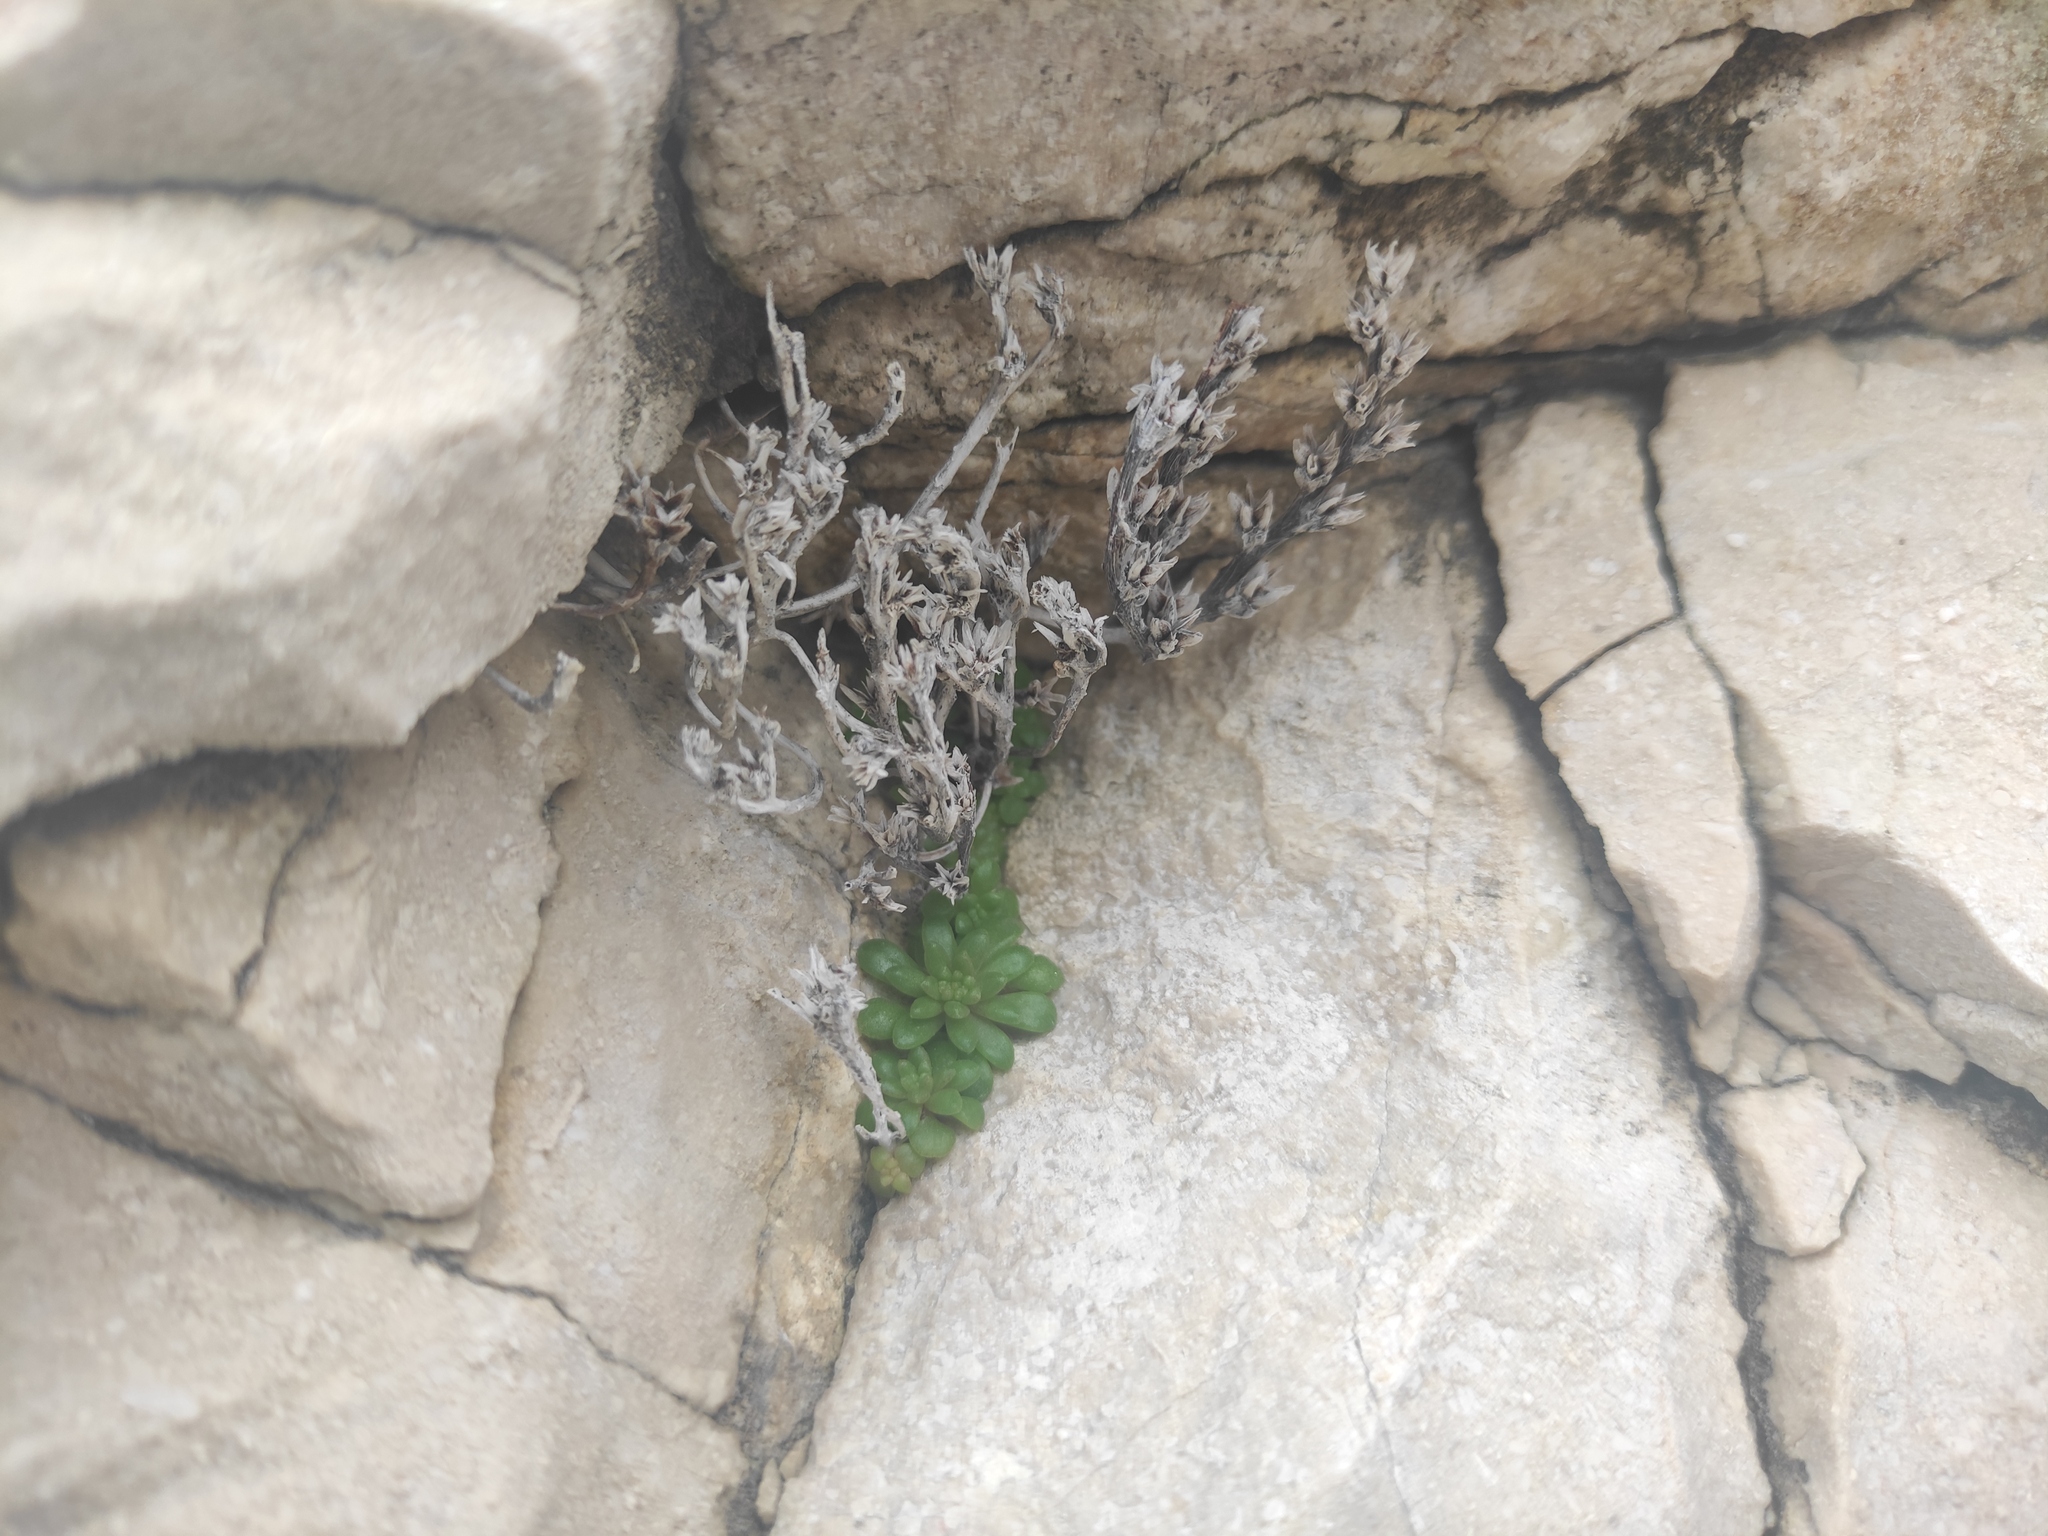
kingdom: Plantae
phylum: Tracheophyta
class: Magnoliopsida
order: Saxifragales
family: Crassulaceae
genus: Sedum
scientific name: Sedum litoreum
